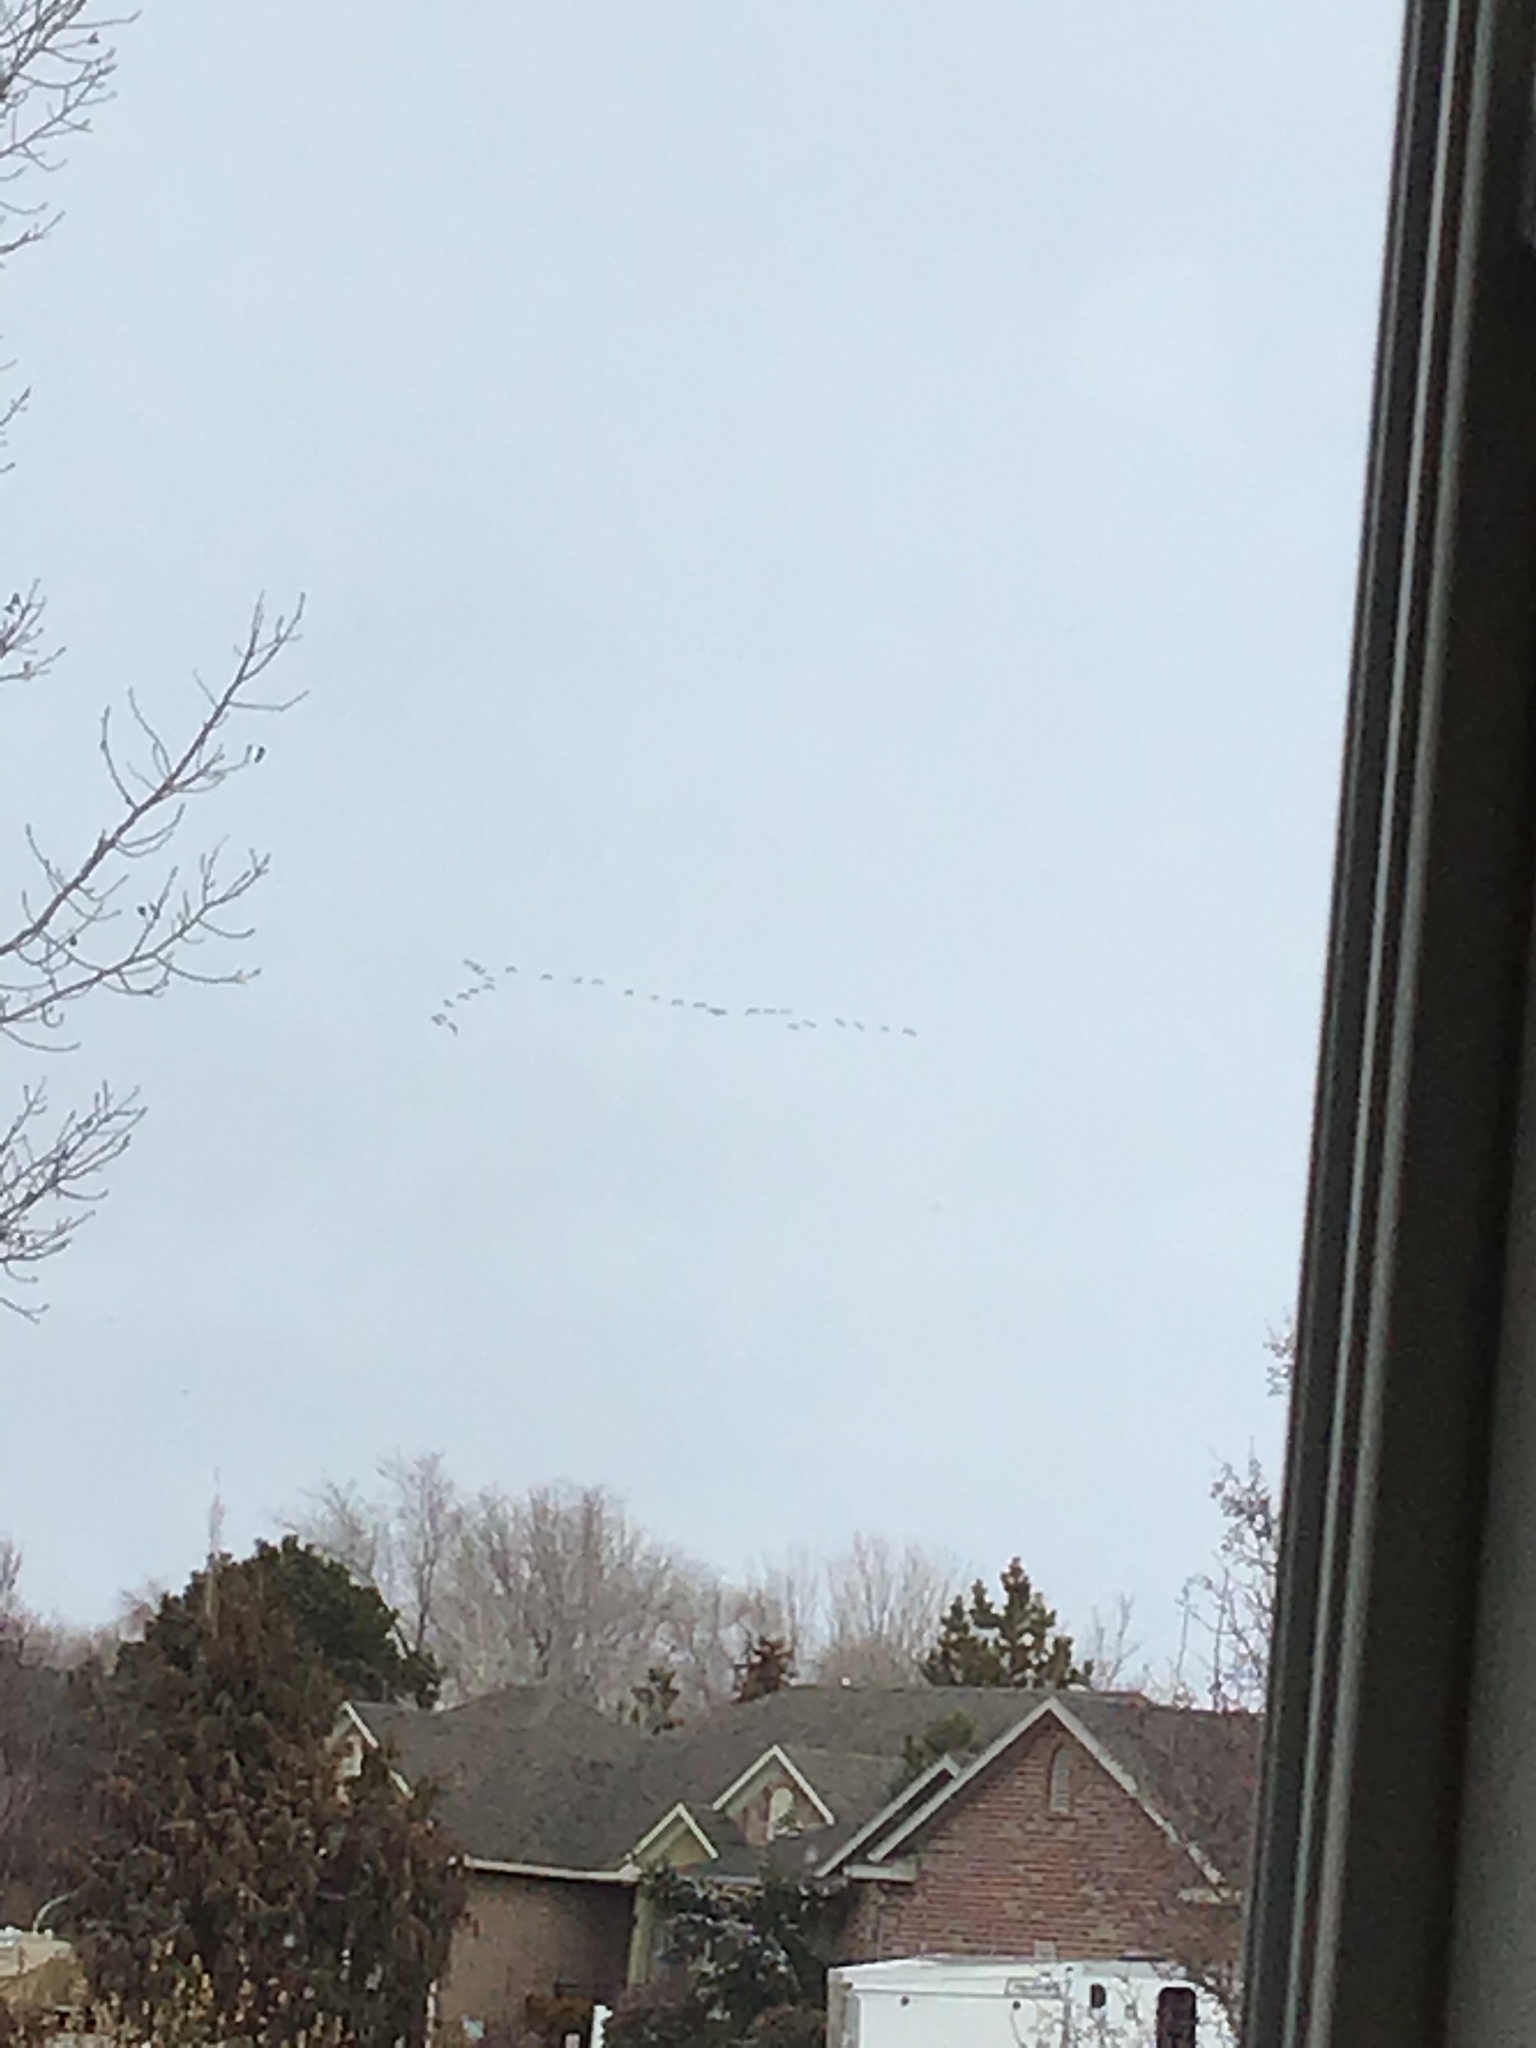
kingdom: Animalia
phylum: Chordata
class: Aves
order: Anseriformes
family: Anatidae
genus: Branta
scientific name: Branta canadensis
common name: Canada goose
